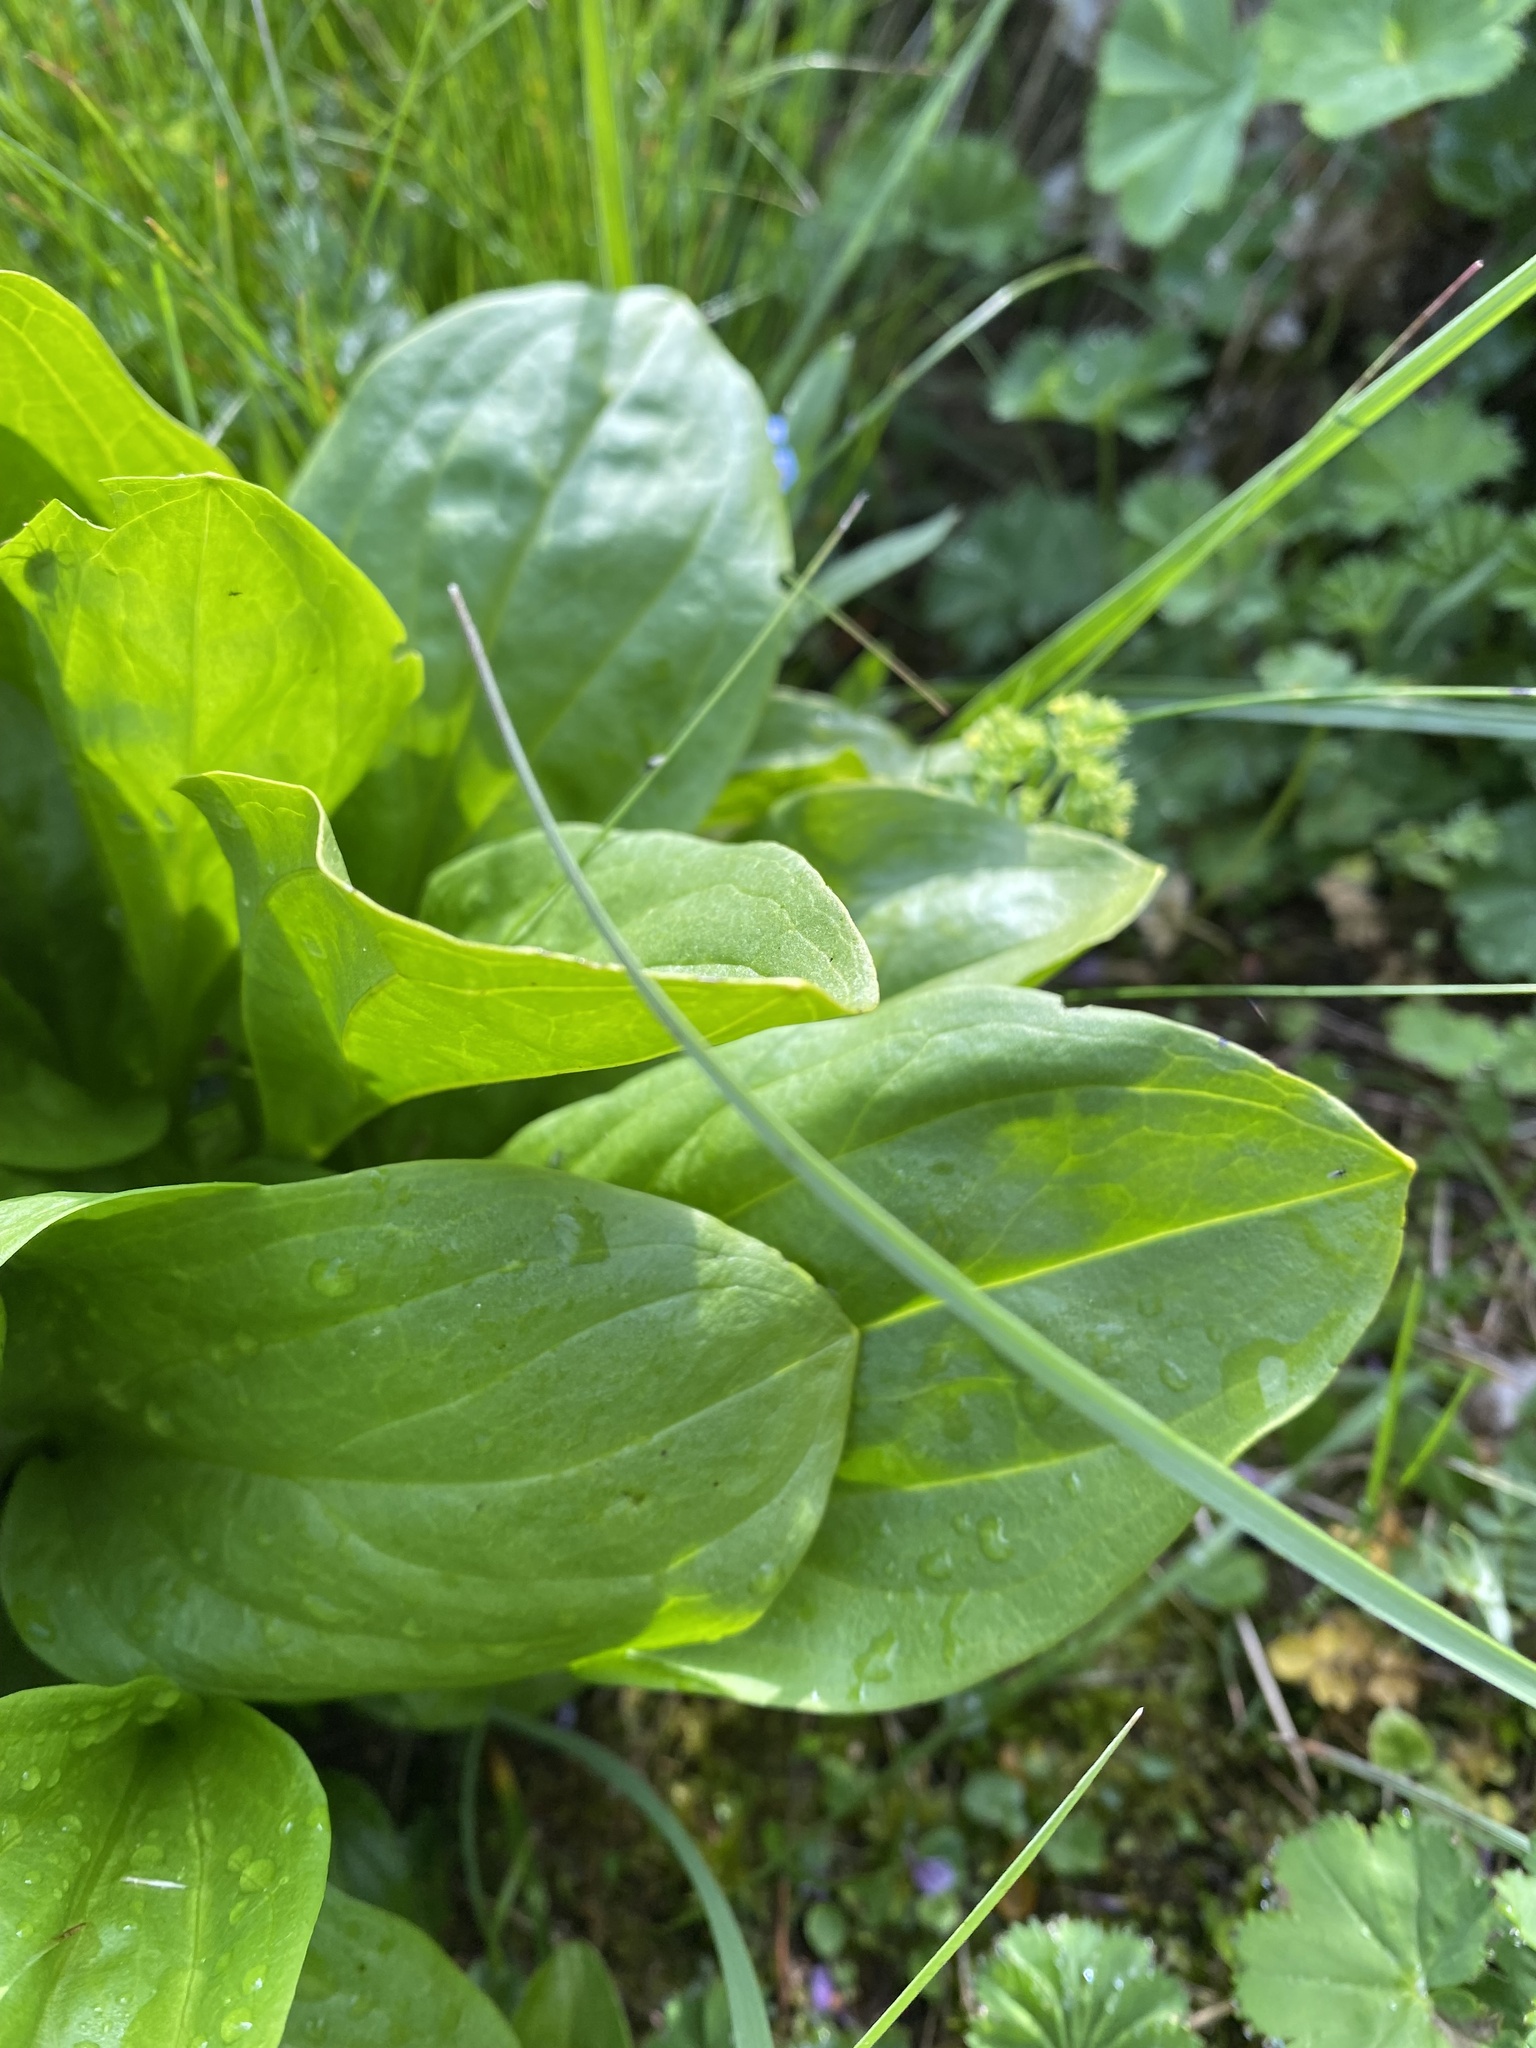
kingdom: Plantae
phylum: Tracheophyta
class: Magnoliopsida
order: Gentianales
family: Gentianaceae
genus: Swertia
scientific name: Swertia iberica
